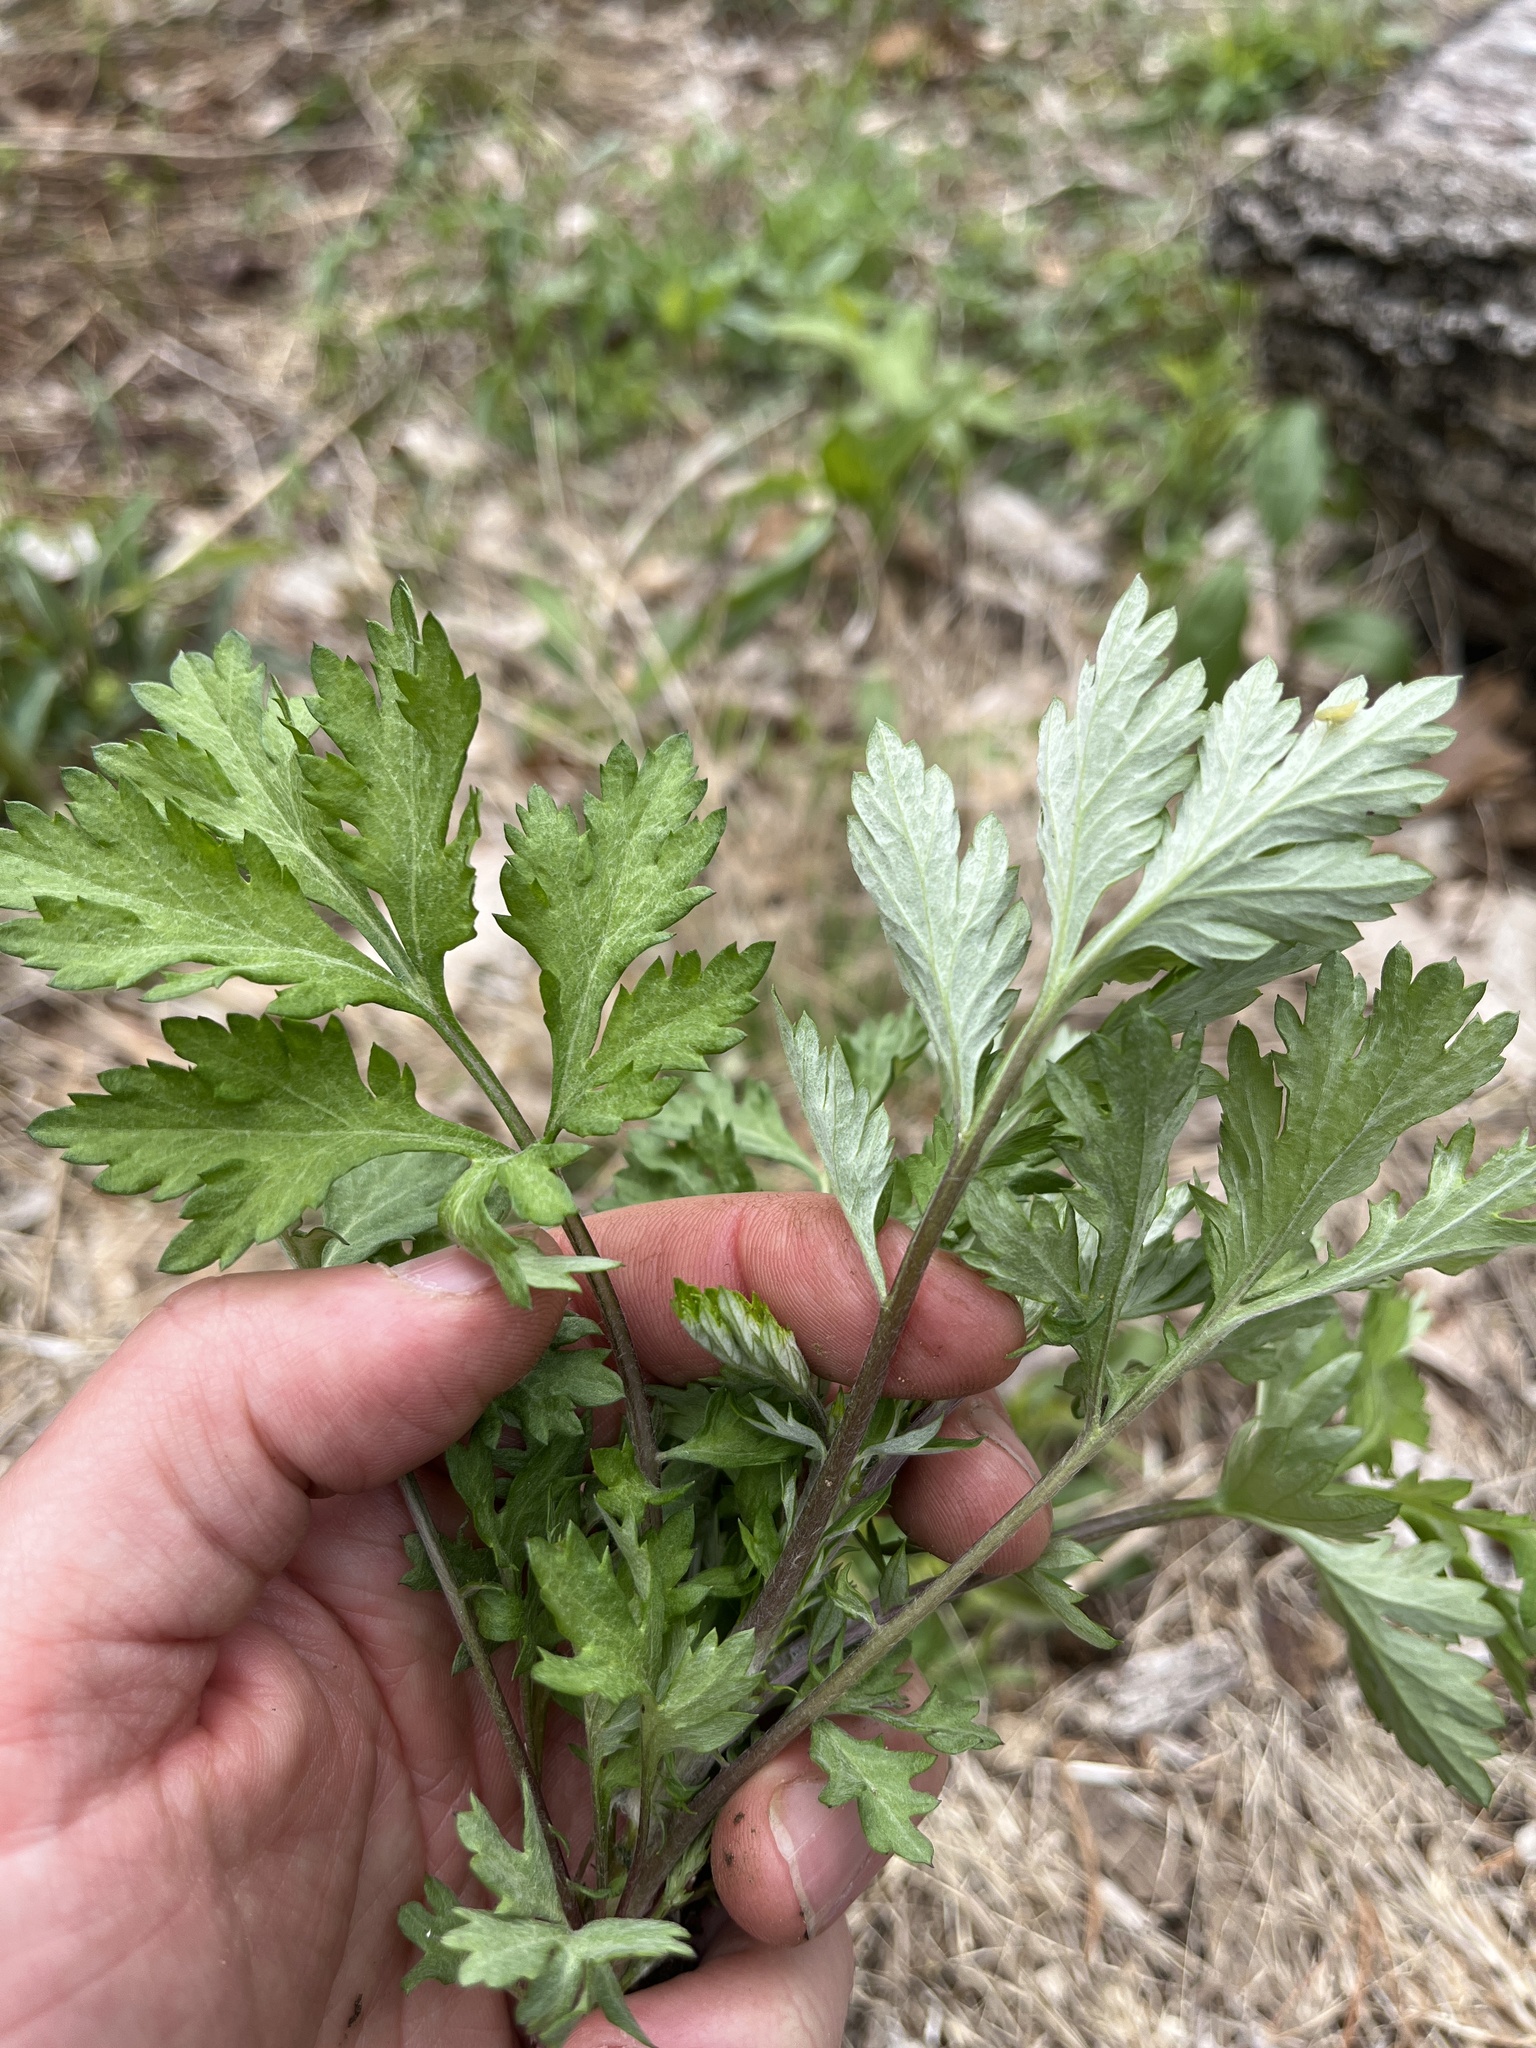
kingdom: Plantae
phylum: Tracheophyta
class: Magnoliopsida
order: Asterales
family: Asteraceae
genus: Artemisia
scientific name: Artemisia vulgaris
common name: Mugwort
